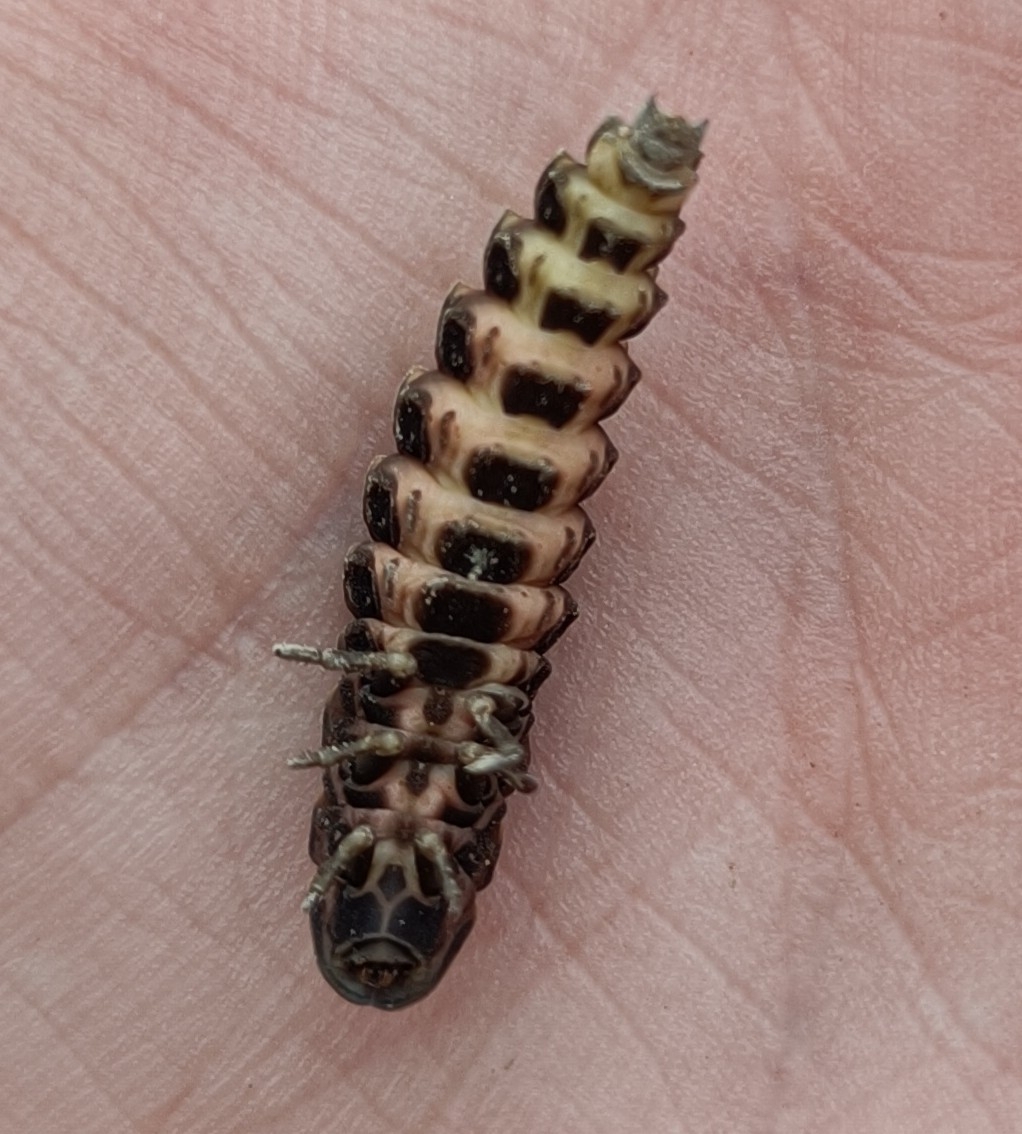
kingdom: Animalia
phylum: Arthropoda
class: Insecta
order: Coleoptera
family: Lampyridae
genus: Lampyris
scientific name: Lampyris noctiluca
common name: Glow-worm
